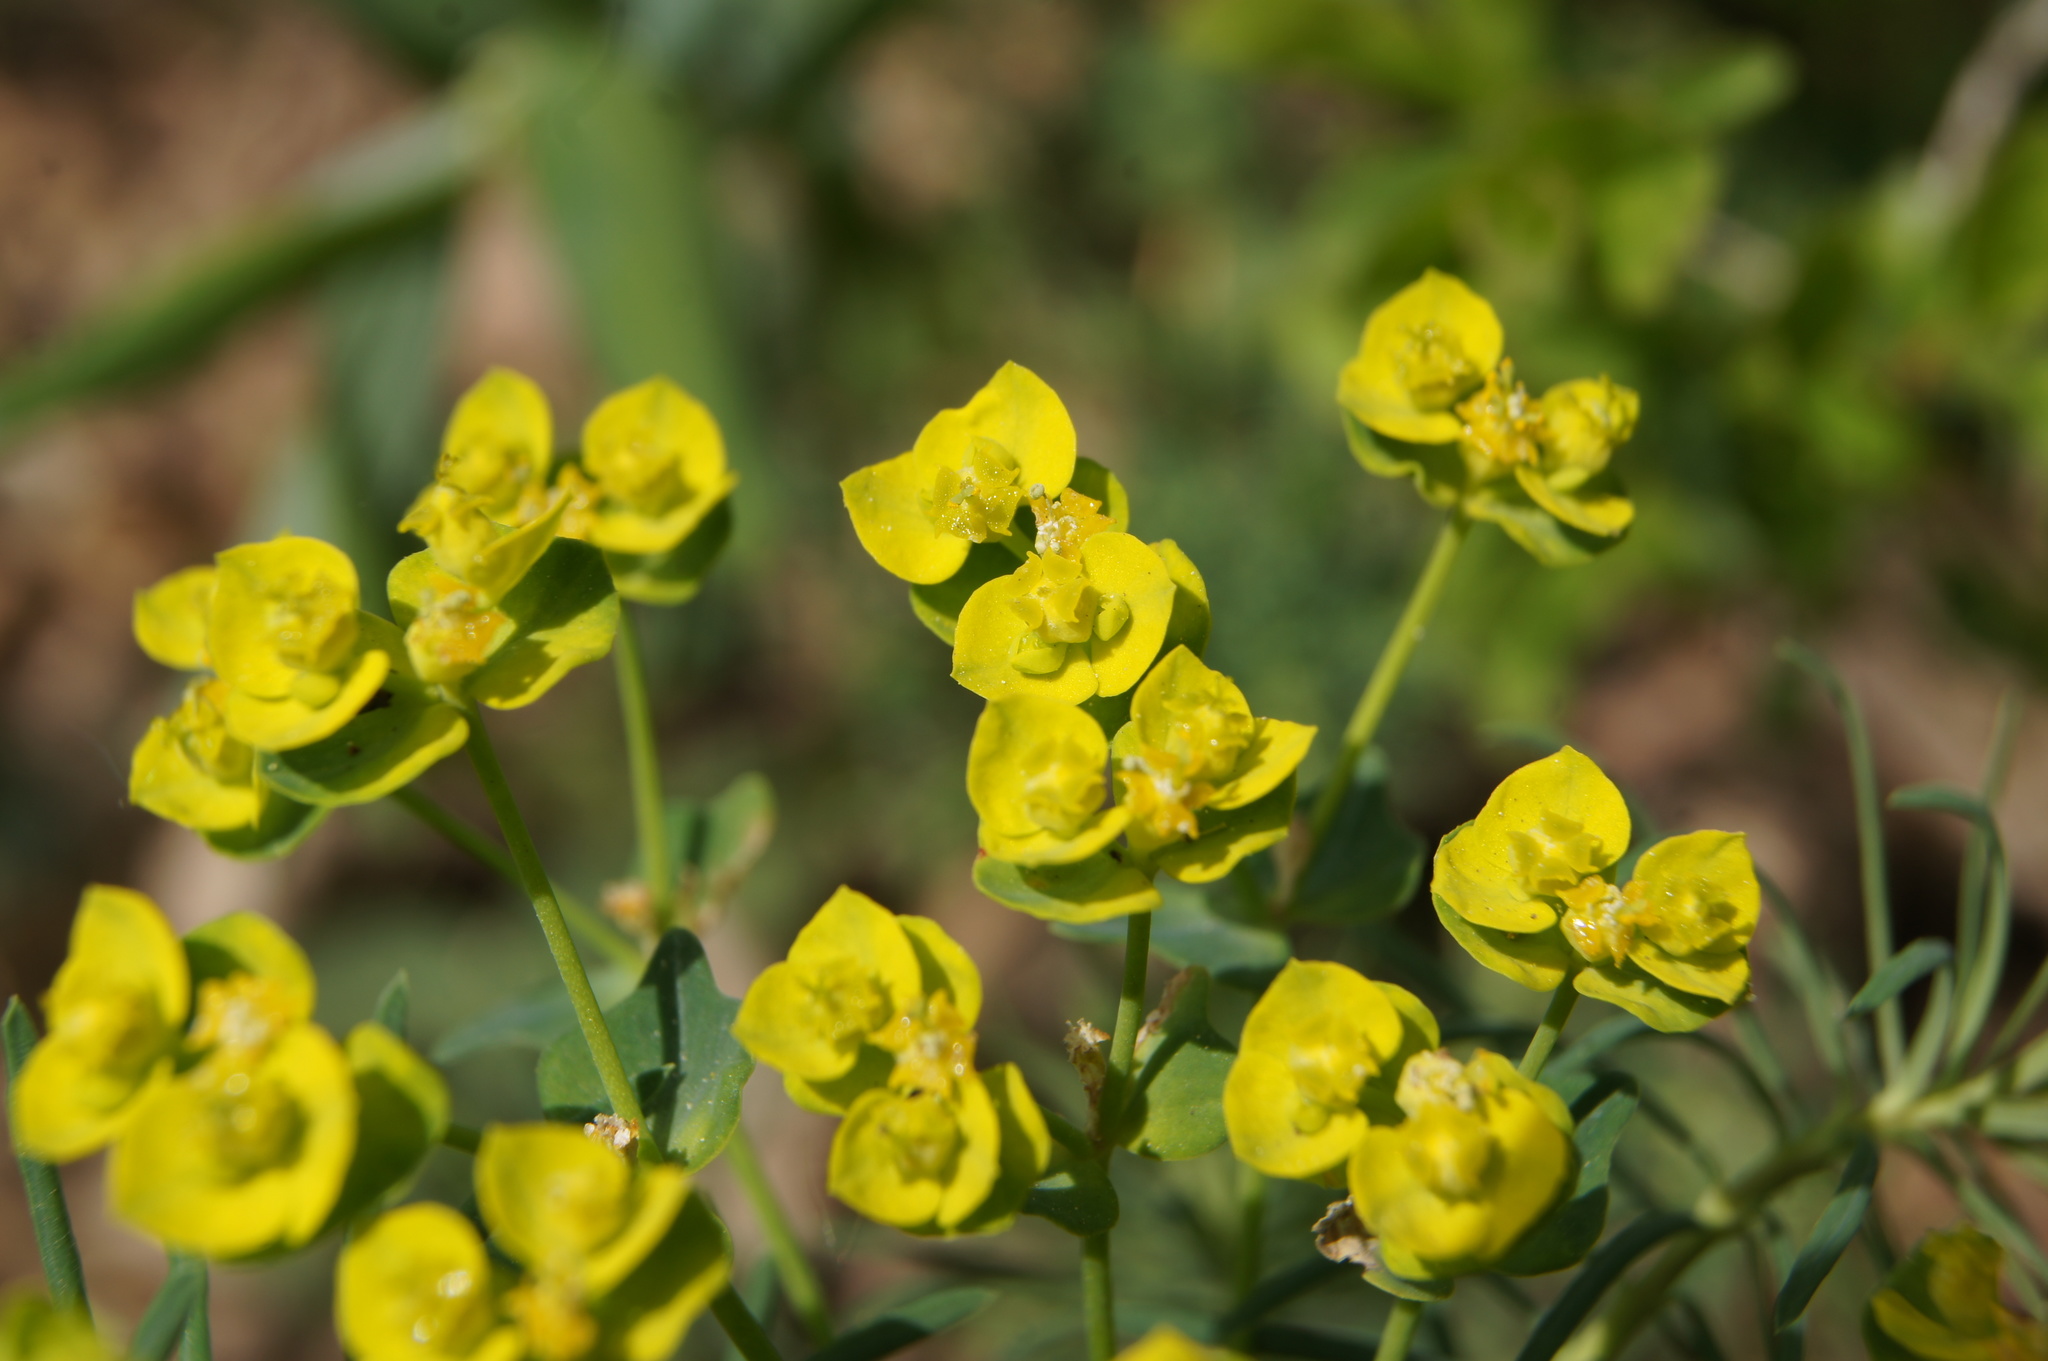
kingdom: Plantae
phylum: Tracheophyta
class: Magnoliopsida
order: Malpighiales
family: Euphorbiaceae
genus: Euphorbia
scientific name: Euphorbia cyparissias
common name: Cypress spurge
